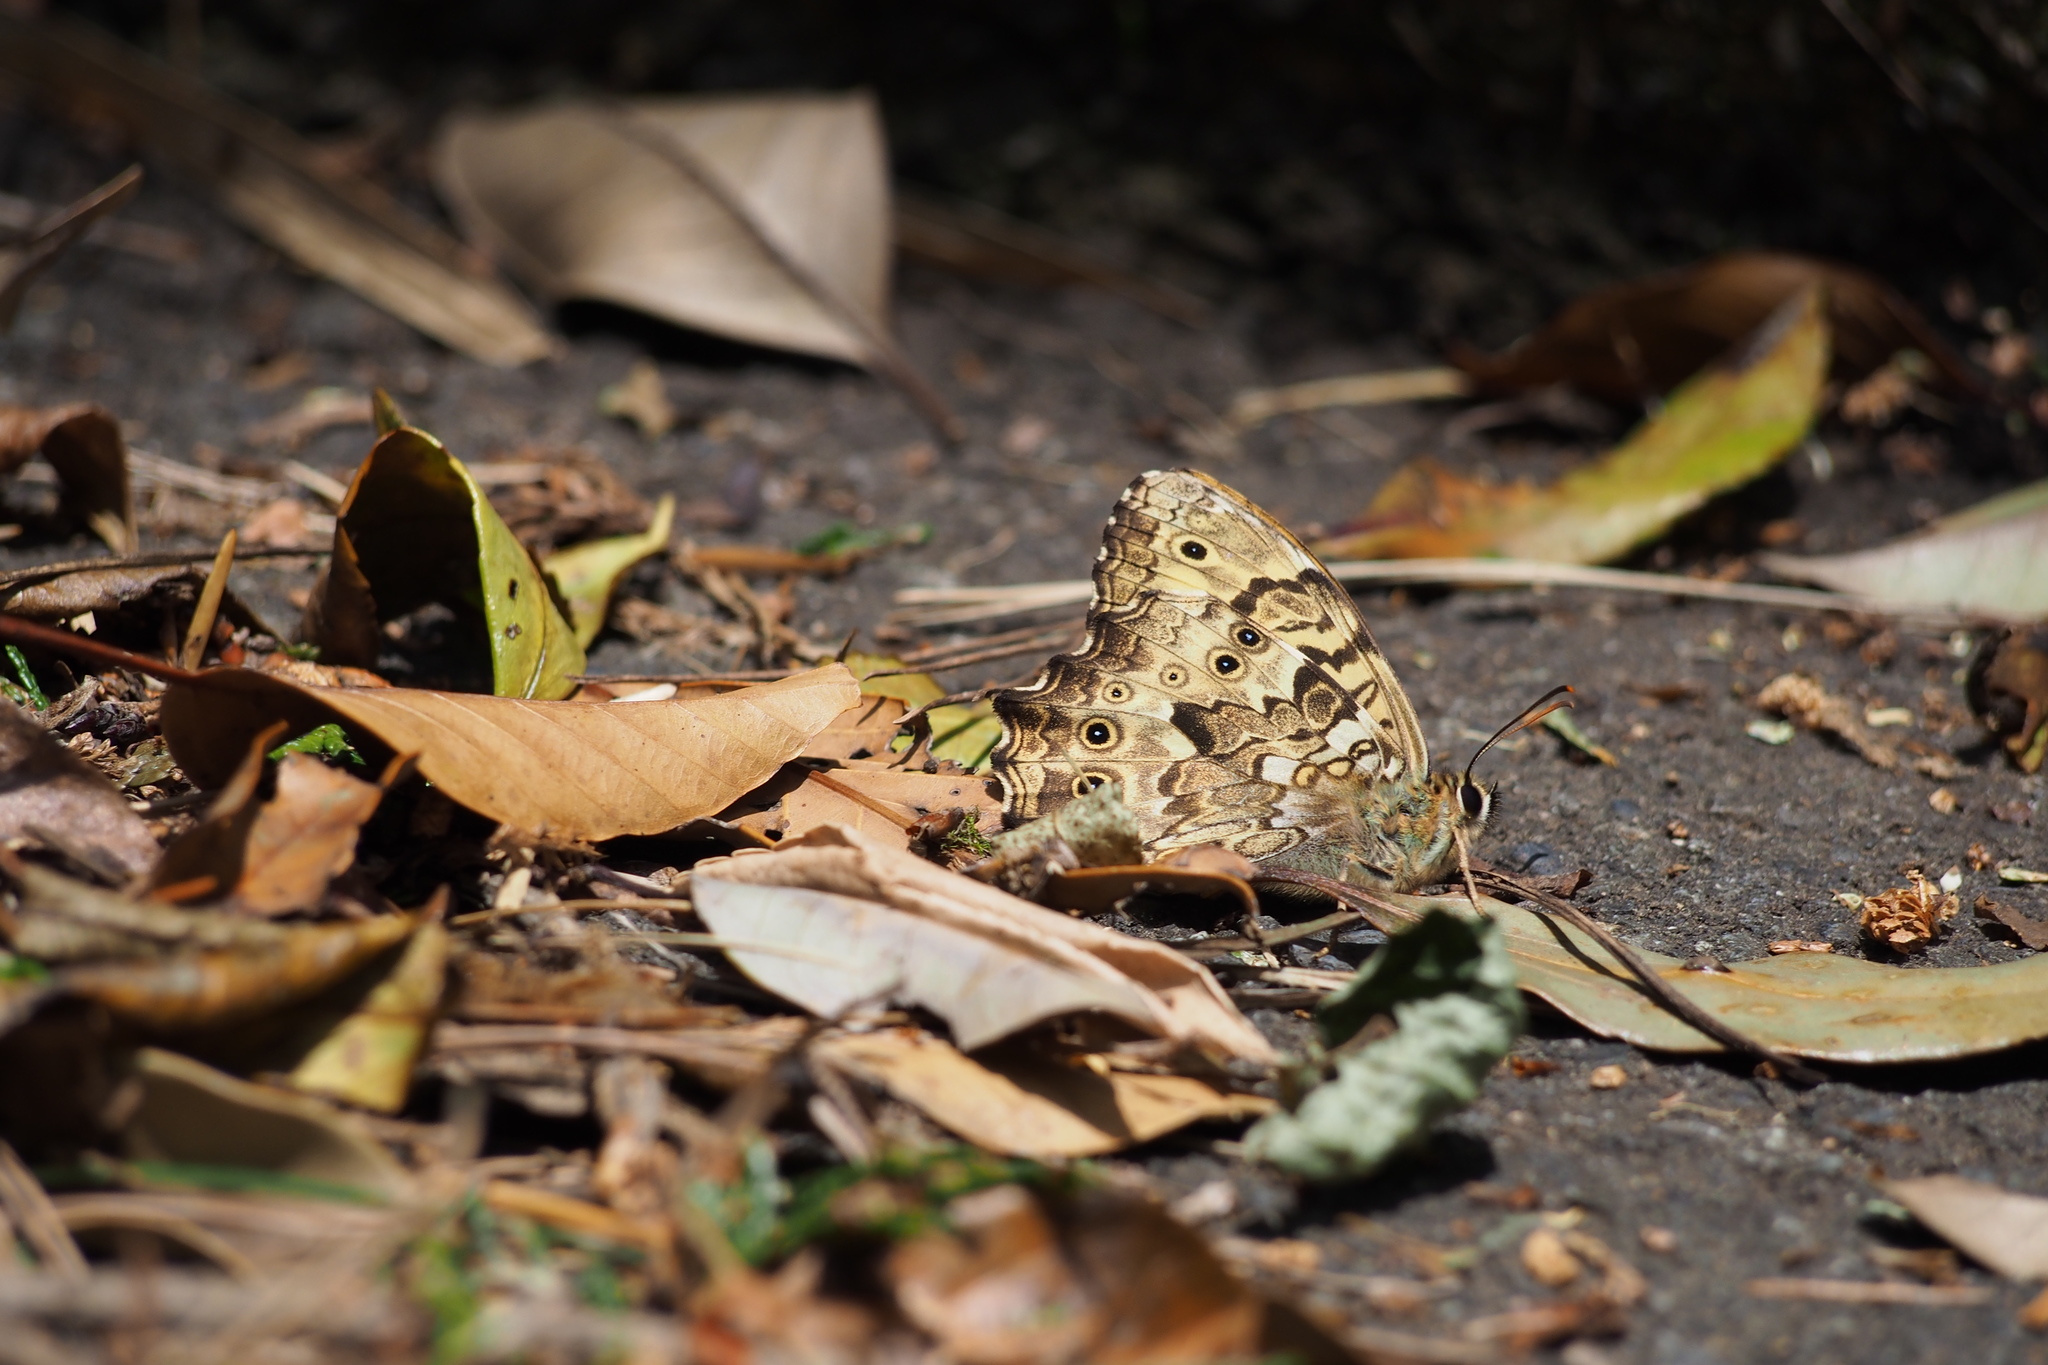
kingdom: Animalia
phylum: Arthropoda
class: Insecta
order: Lepidoptera
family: Nymphalidae
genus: Neope
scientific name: Neope goschkevitschii
